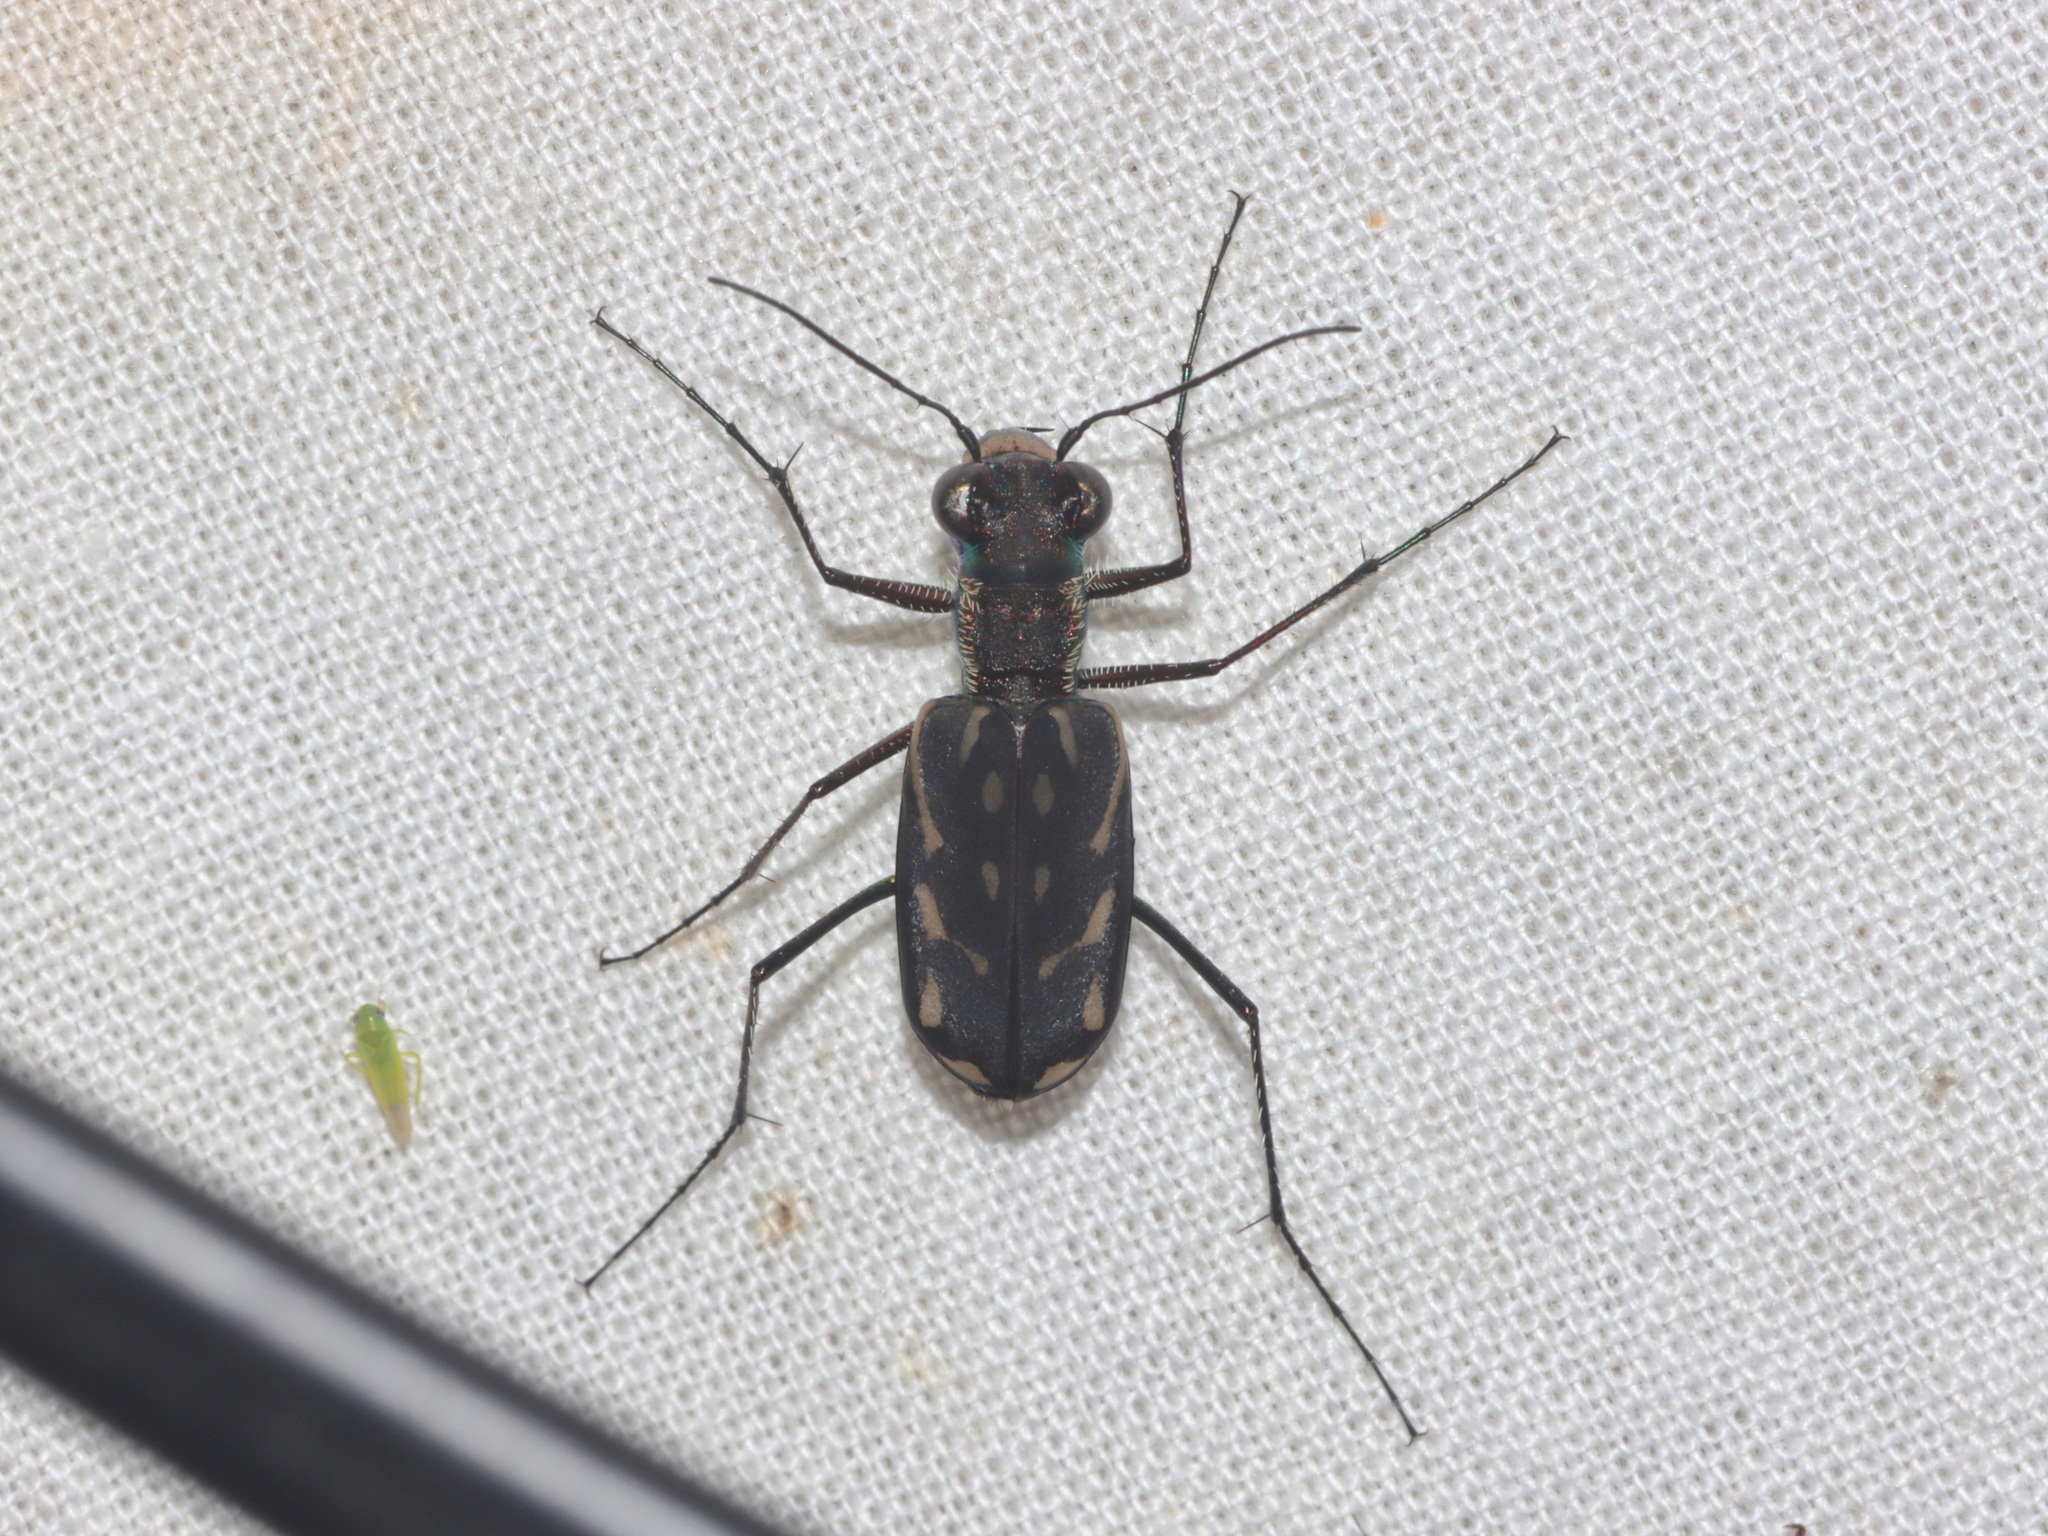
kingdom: Animalia
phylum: Arthropoda
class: Insecta
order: Coleoptera
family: Carabidae
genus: Lophyra
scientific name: Lophyra striolata
